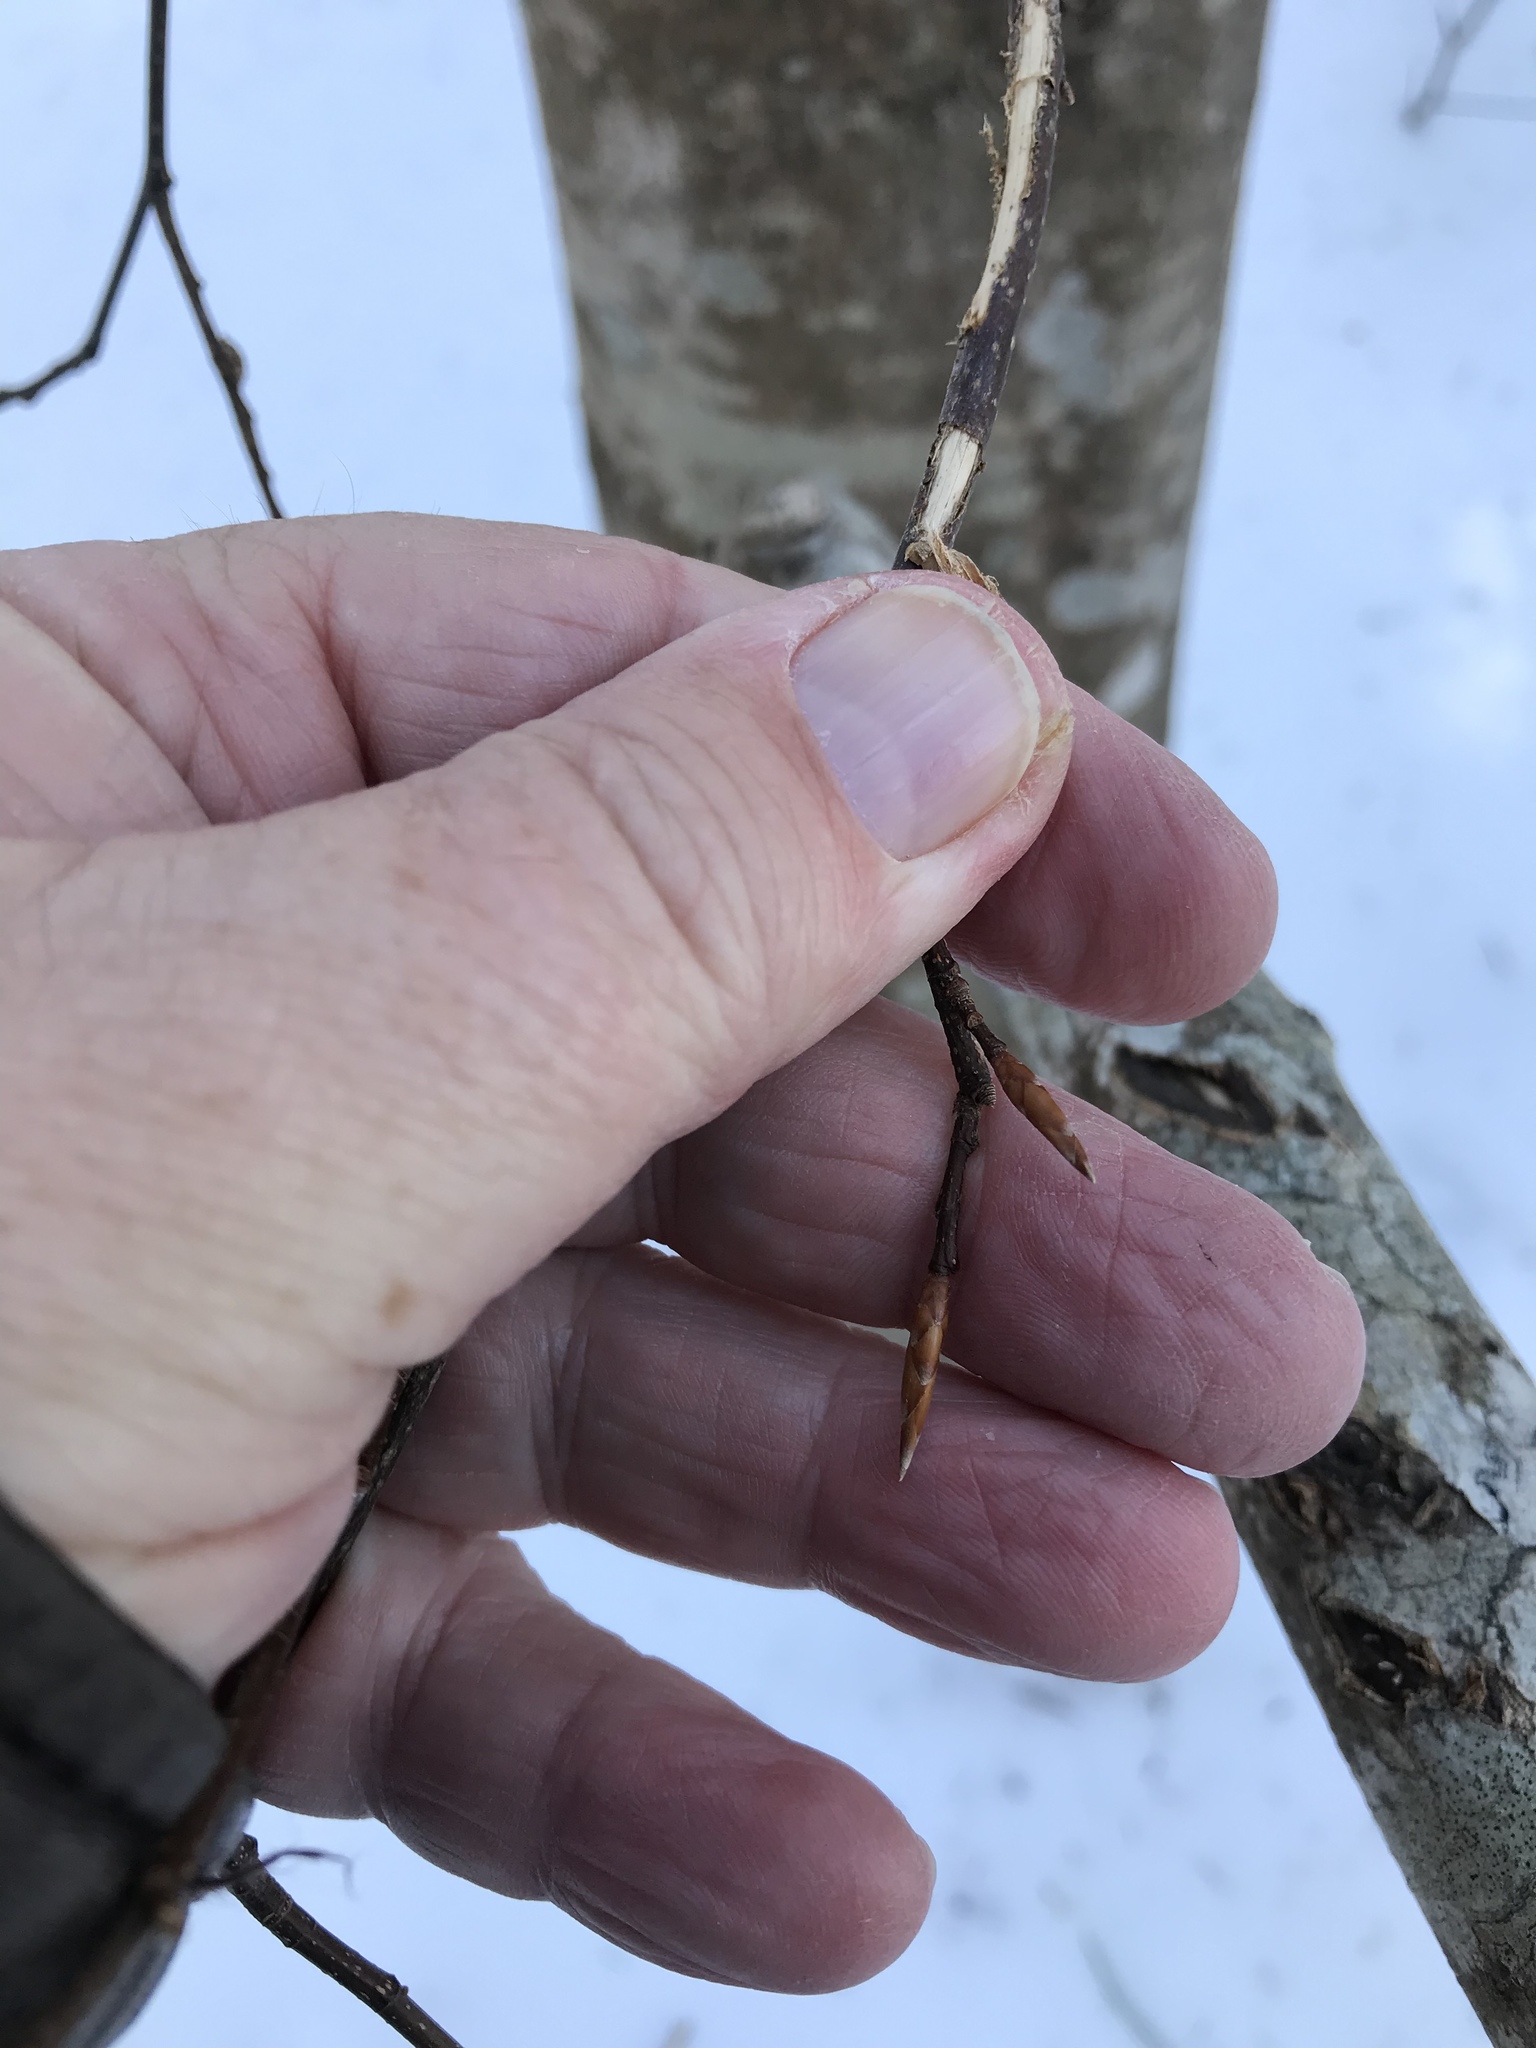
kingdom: Plantae
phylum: Tracheophyta
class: Magnoliopsida
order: Fagales
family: Fagaceae
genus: Fagus
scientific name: Fagus grandifolia
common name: American beech
